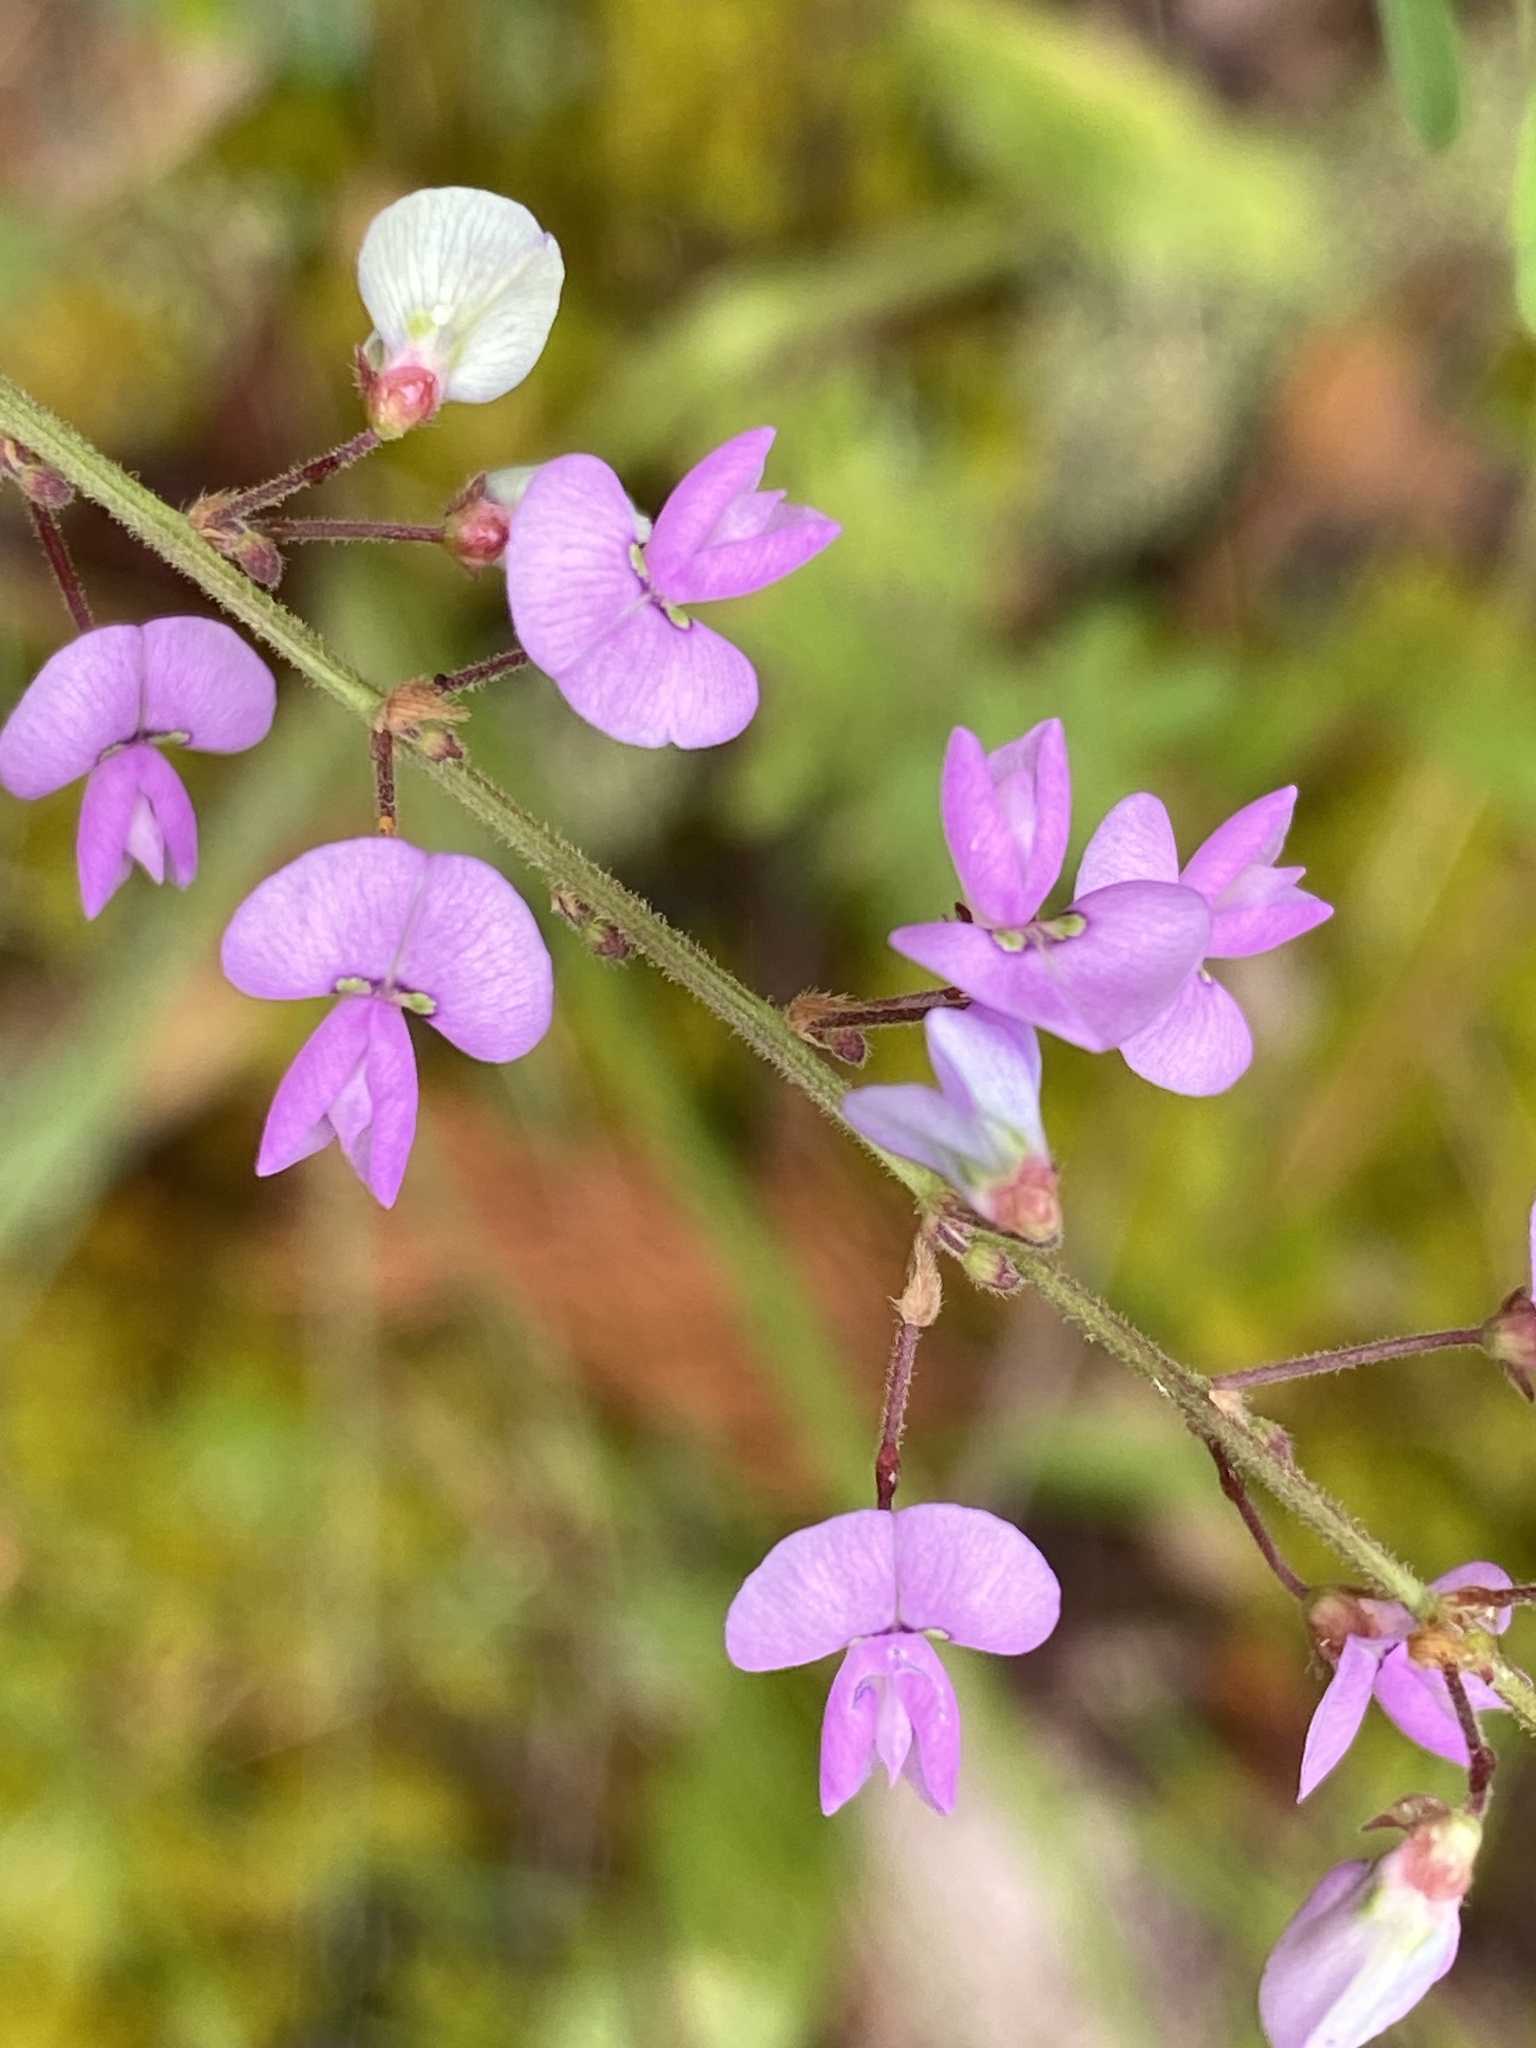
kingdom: Plantae
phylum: Tracheophyta
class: Magnoliopsida
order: Fabales
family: Fabaceae
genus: Desmodium
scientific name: Desmodium ciliare
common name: Hairy small-leaf ticktrefoil
